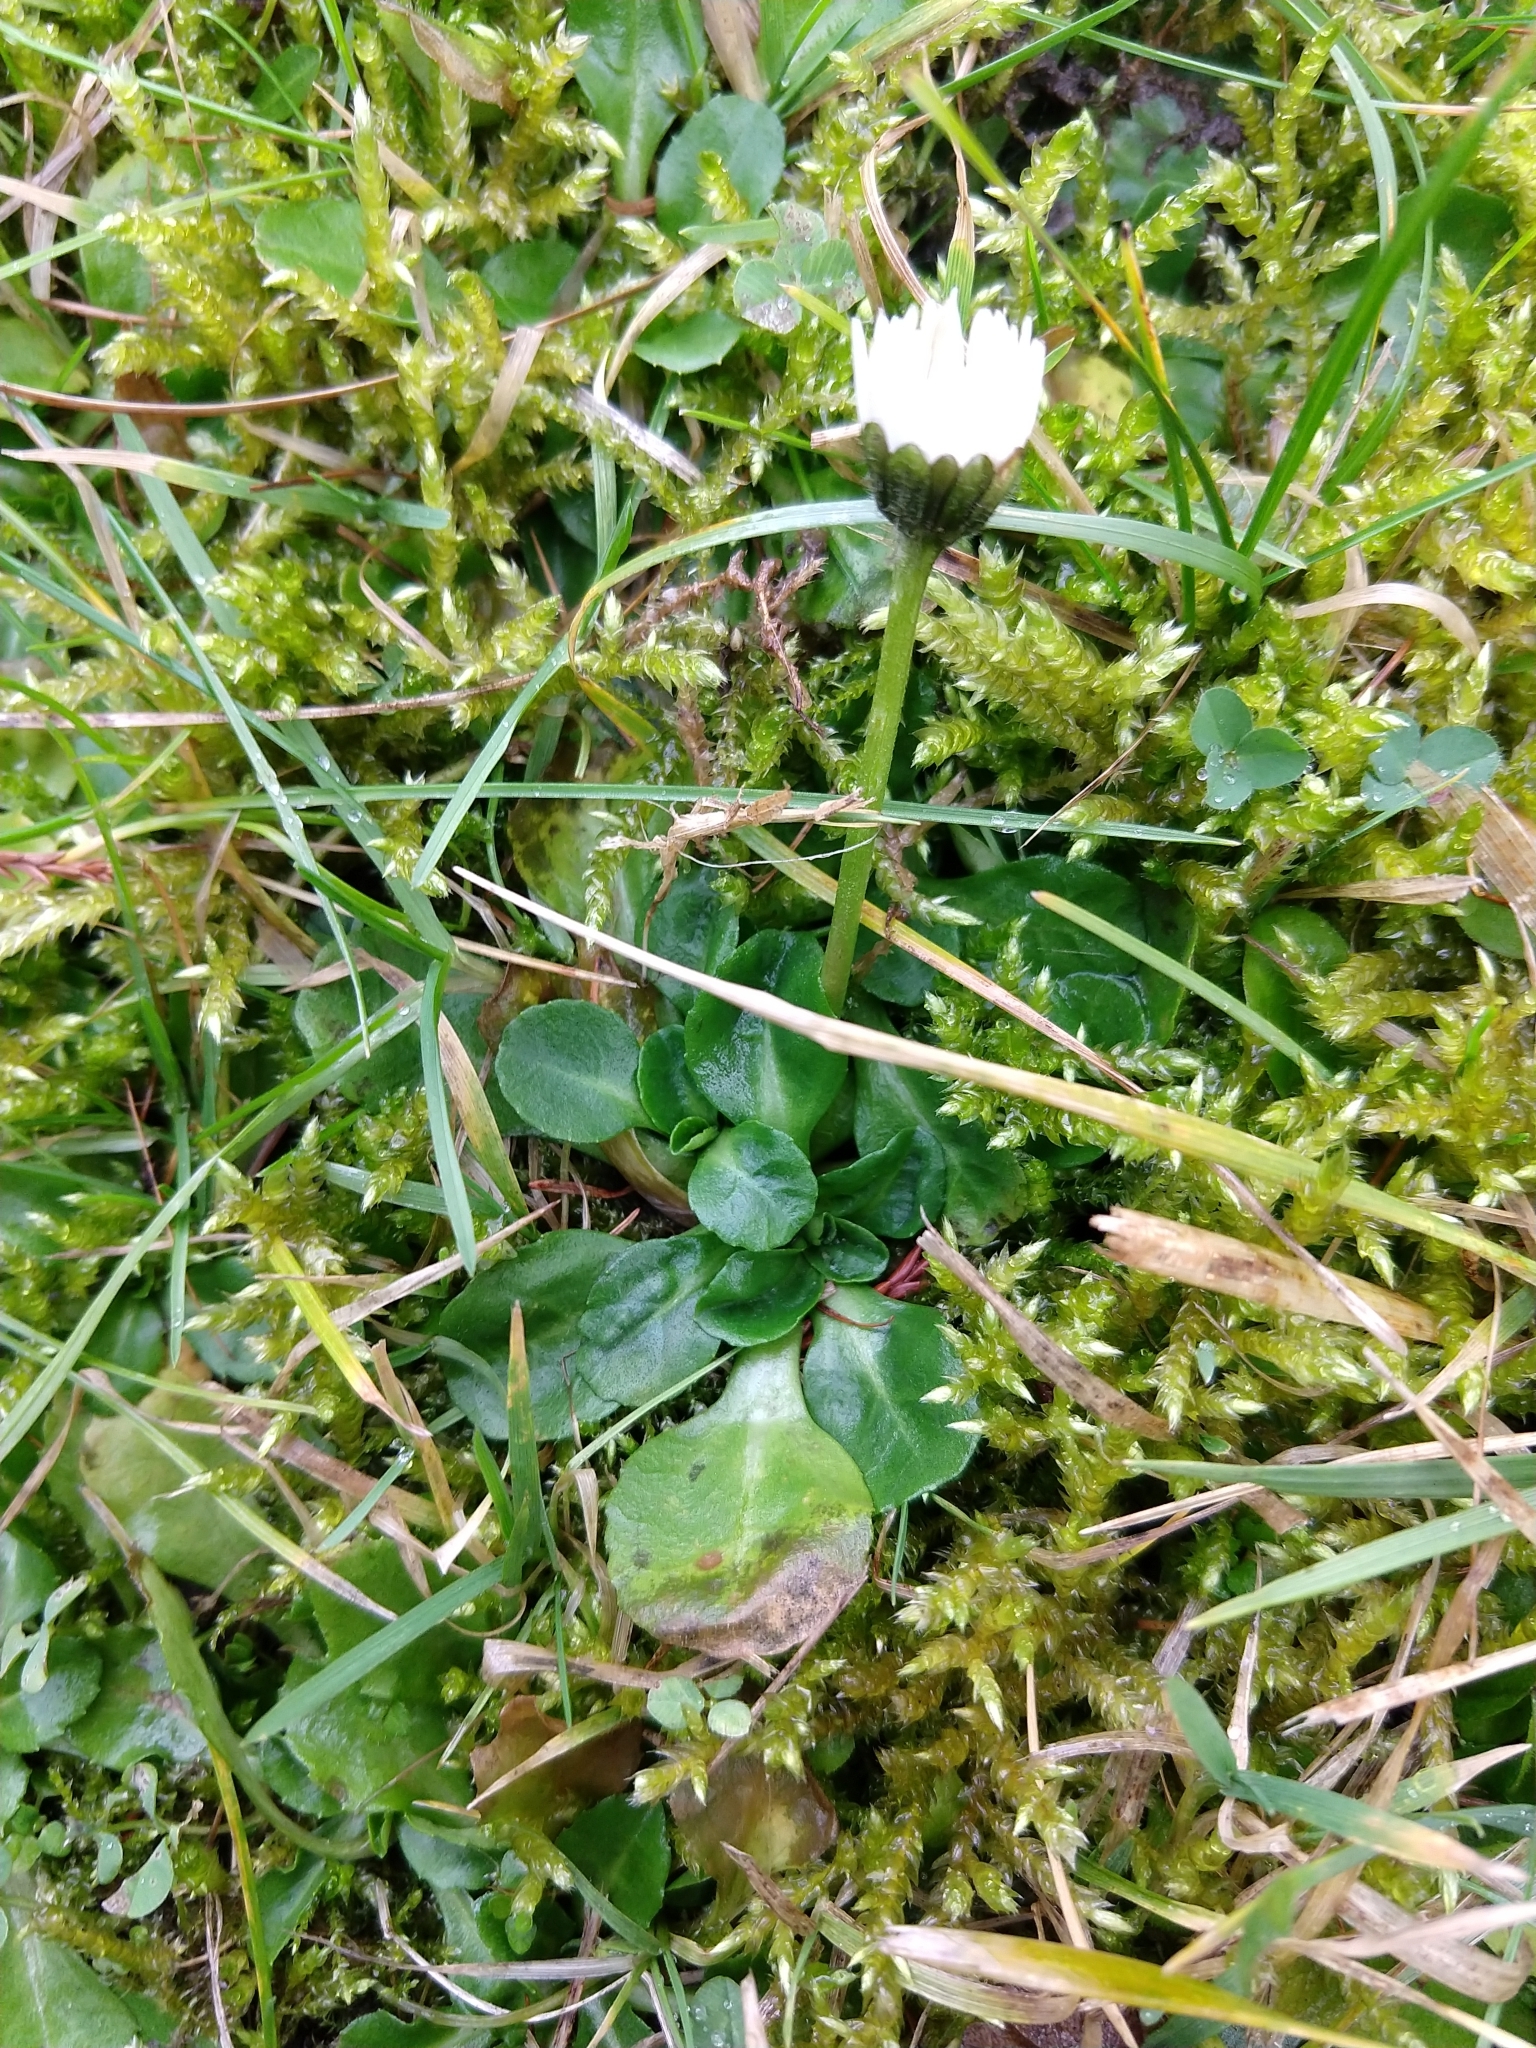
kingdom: Plantae
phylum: Tracheophyta
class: Magnoliopsida
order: Asterales
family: Asteraceae
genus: Bellis
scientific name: Bellis perennis
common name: Lawndaisy
